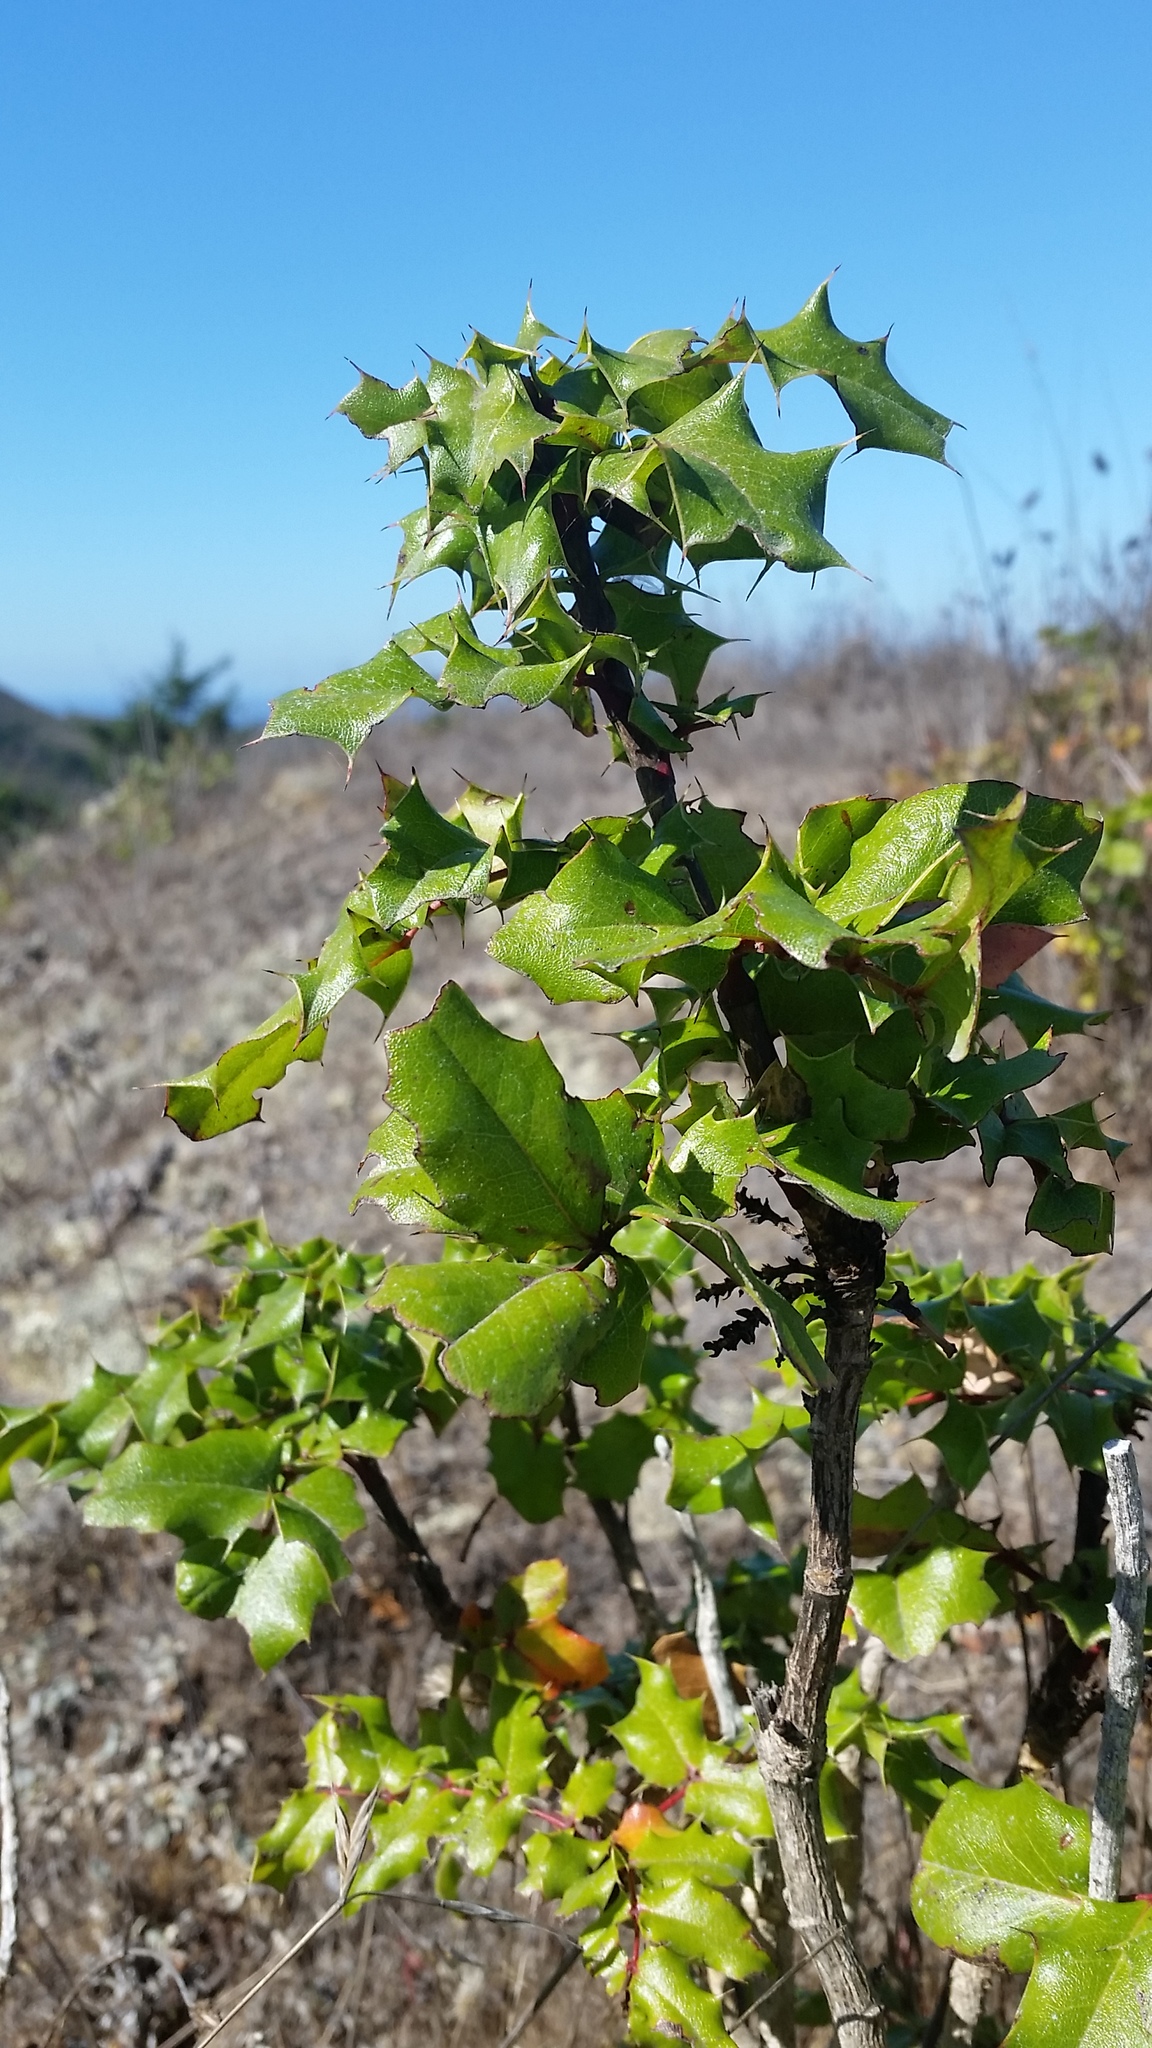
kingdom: Plantae
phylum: Tracheophyta
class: Magnoliopsida
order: Ranunculales
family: Berberidaceae
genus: Mahonia
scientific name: Mahonia
